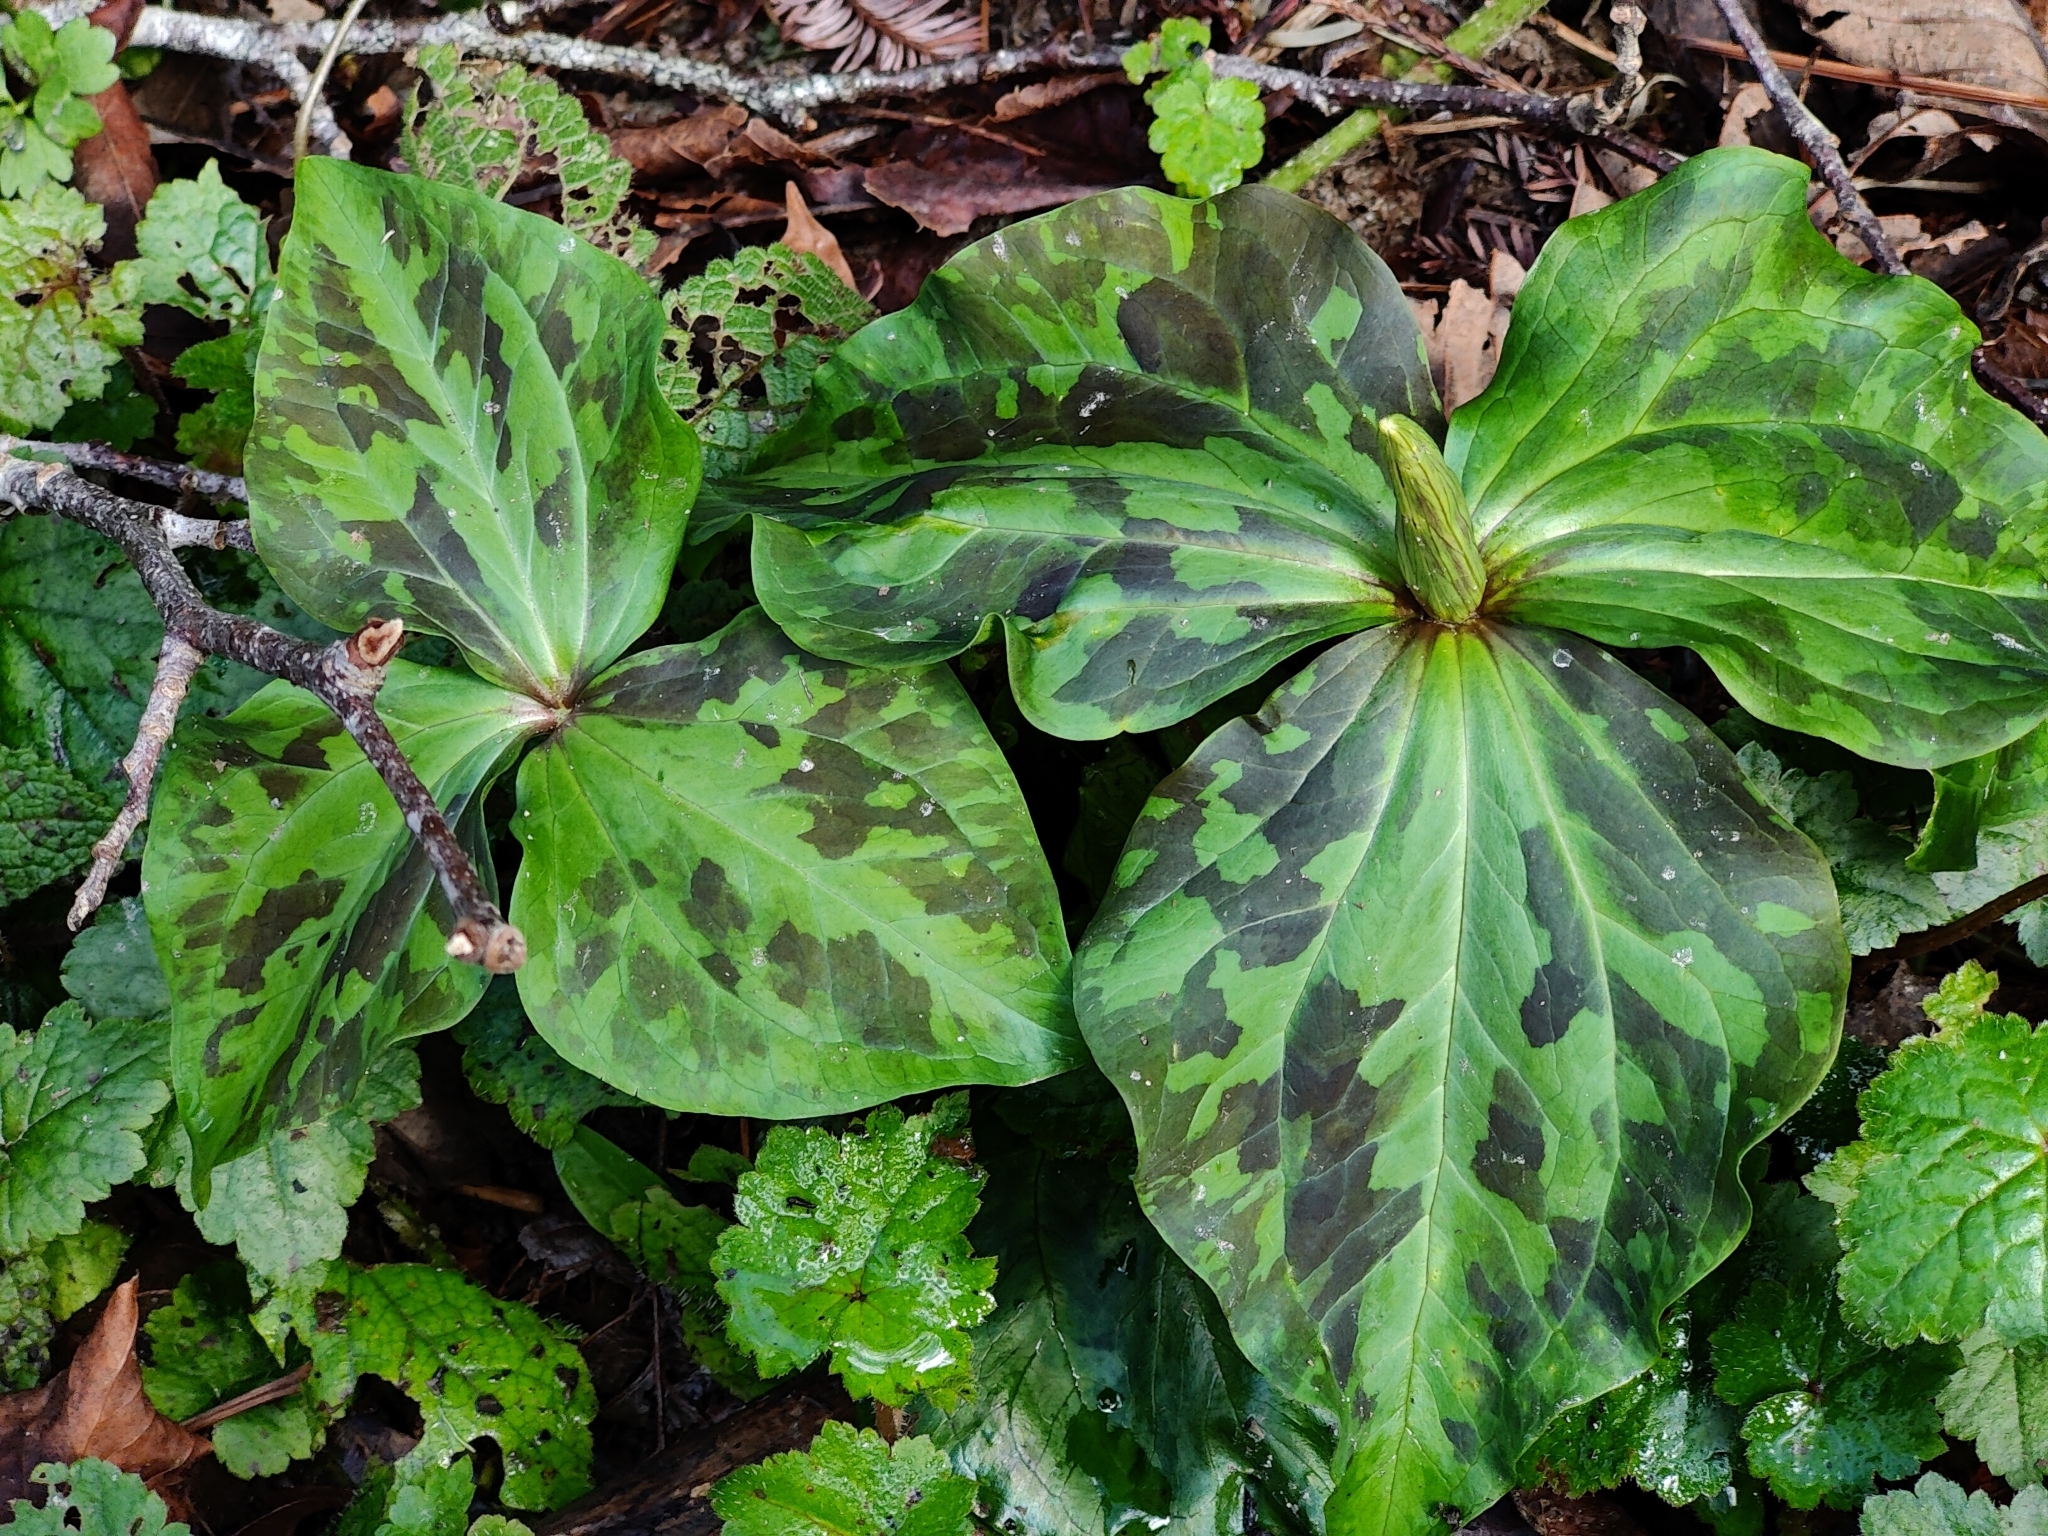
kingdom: Plantae
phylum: Tracheophyta
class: Liliopsida
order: Liliales
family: Melanthiaceae
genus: Trillium
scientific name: Trillium kurabayashii
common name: Giant purple trillium
